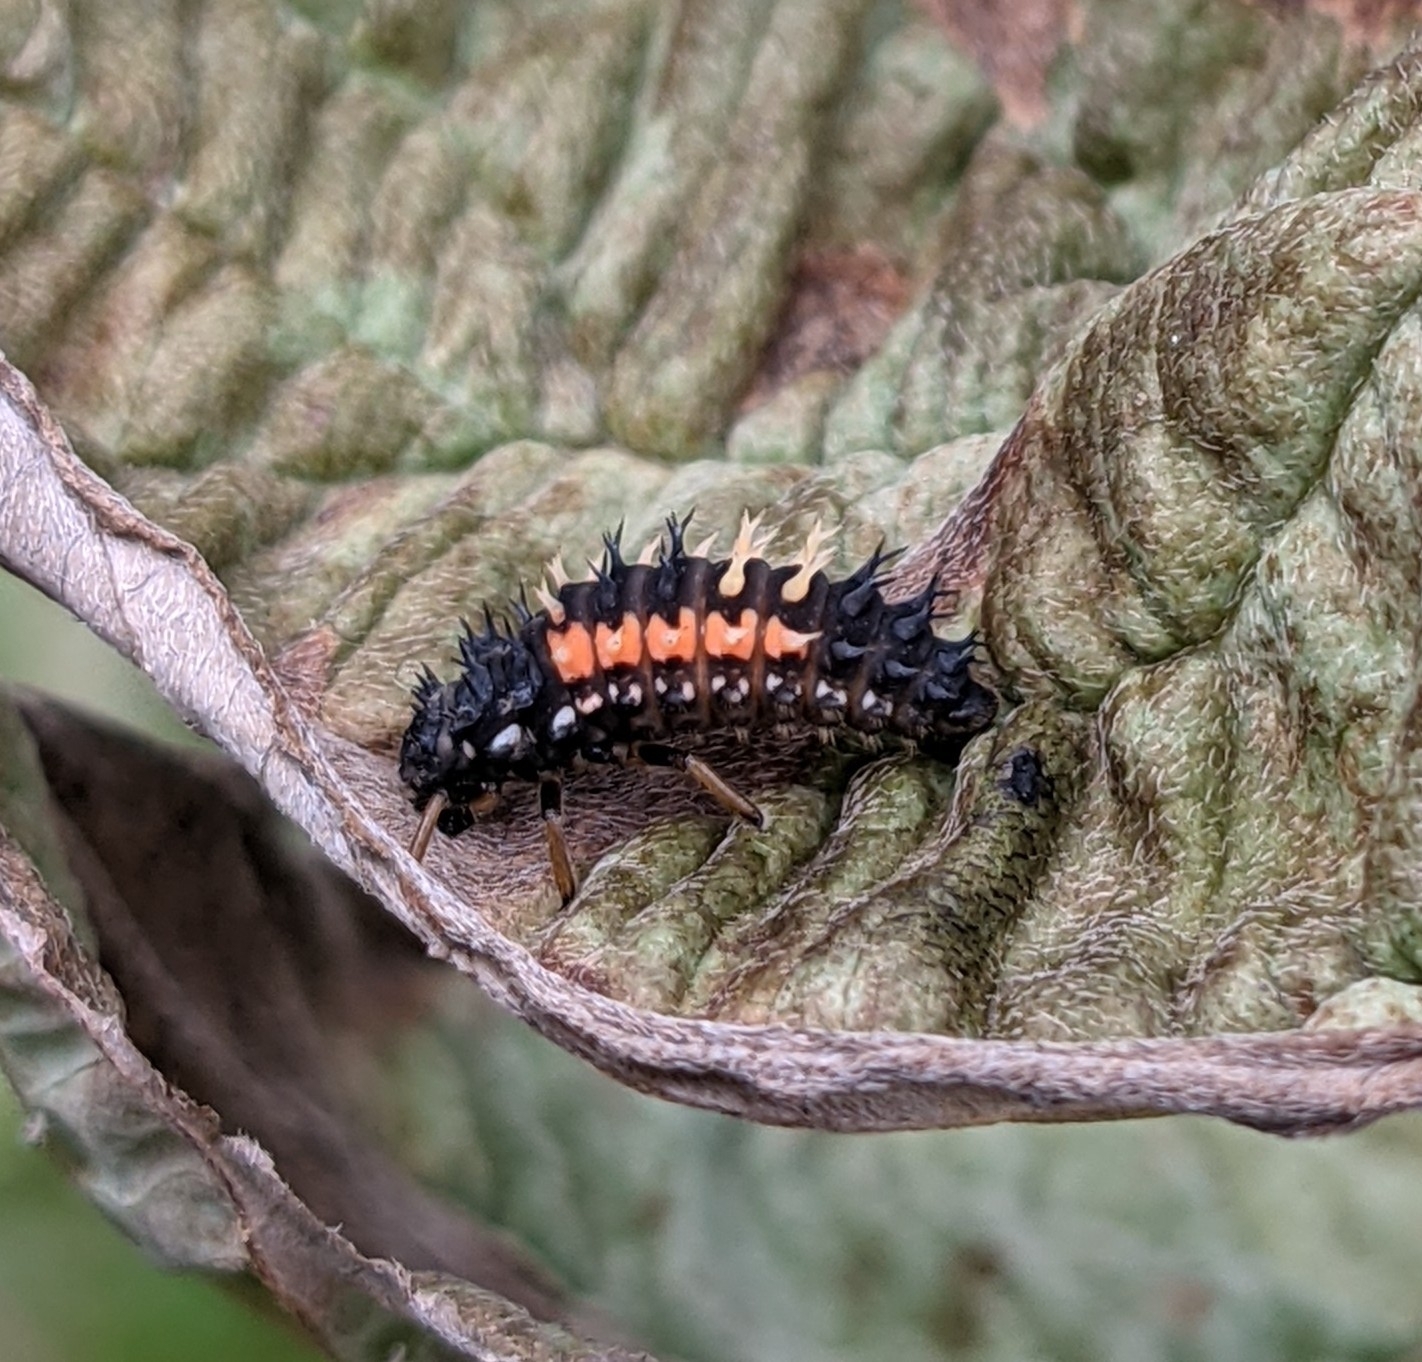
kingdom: Animalia
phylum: Arthropoda
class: Insecta
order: Coleoptera
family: Coccinellidae
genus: Harmonia
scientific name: Harmonia axyridis
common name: Harlequin ladybird
